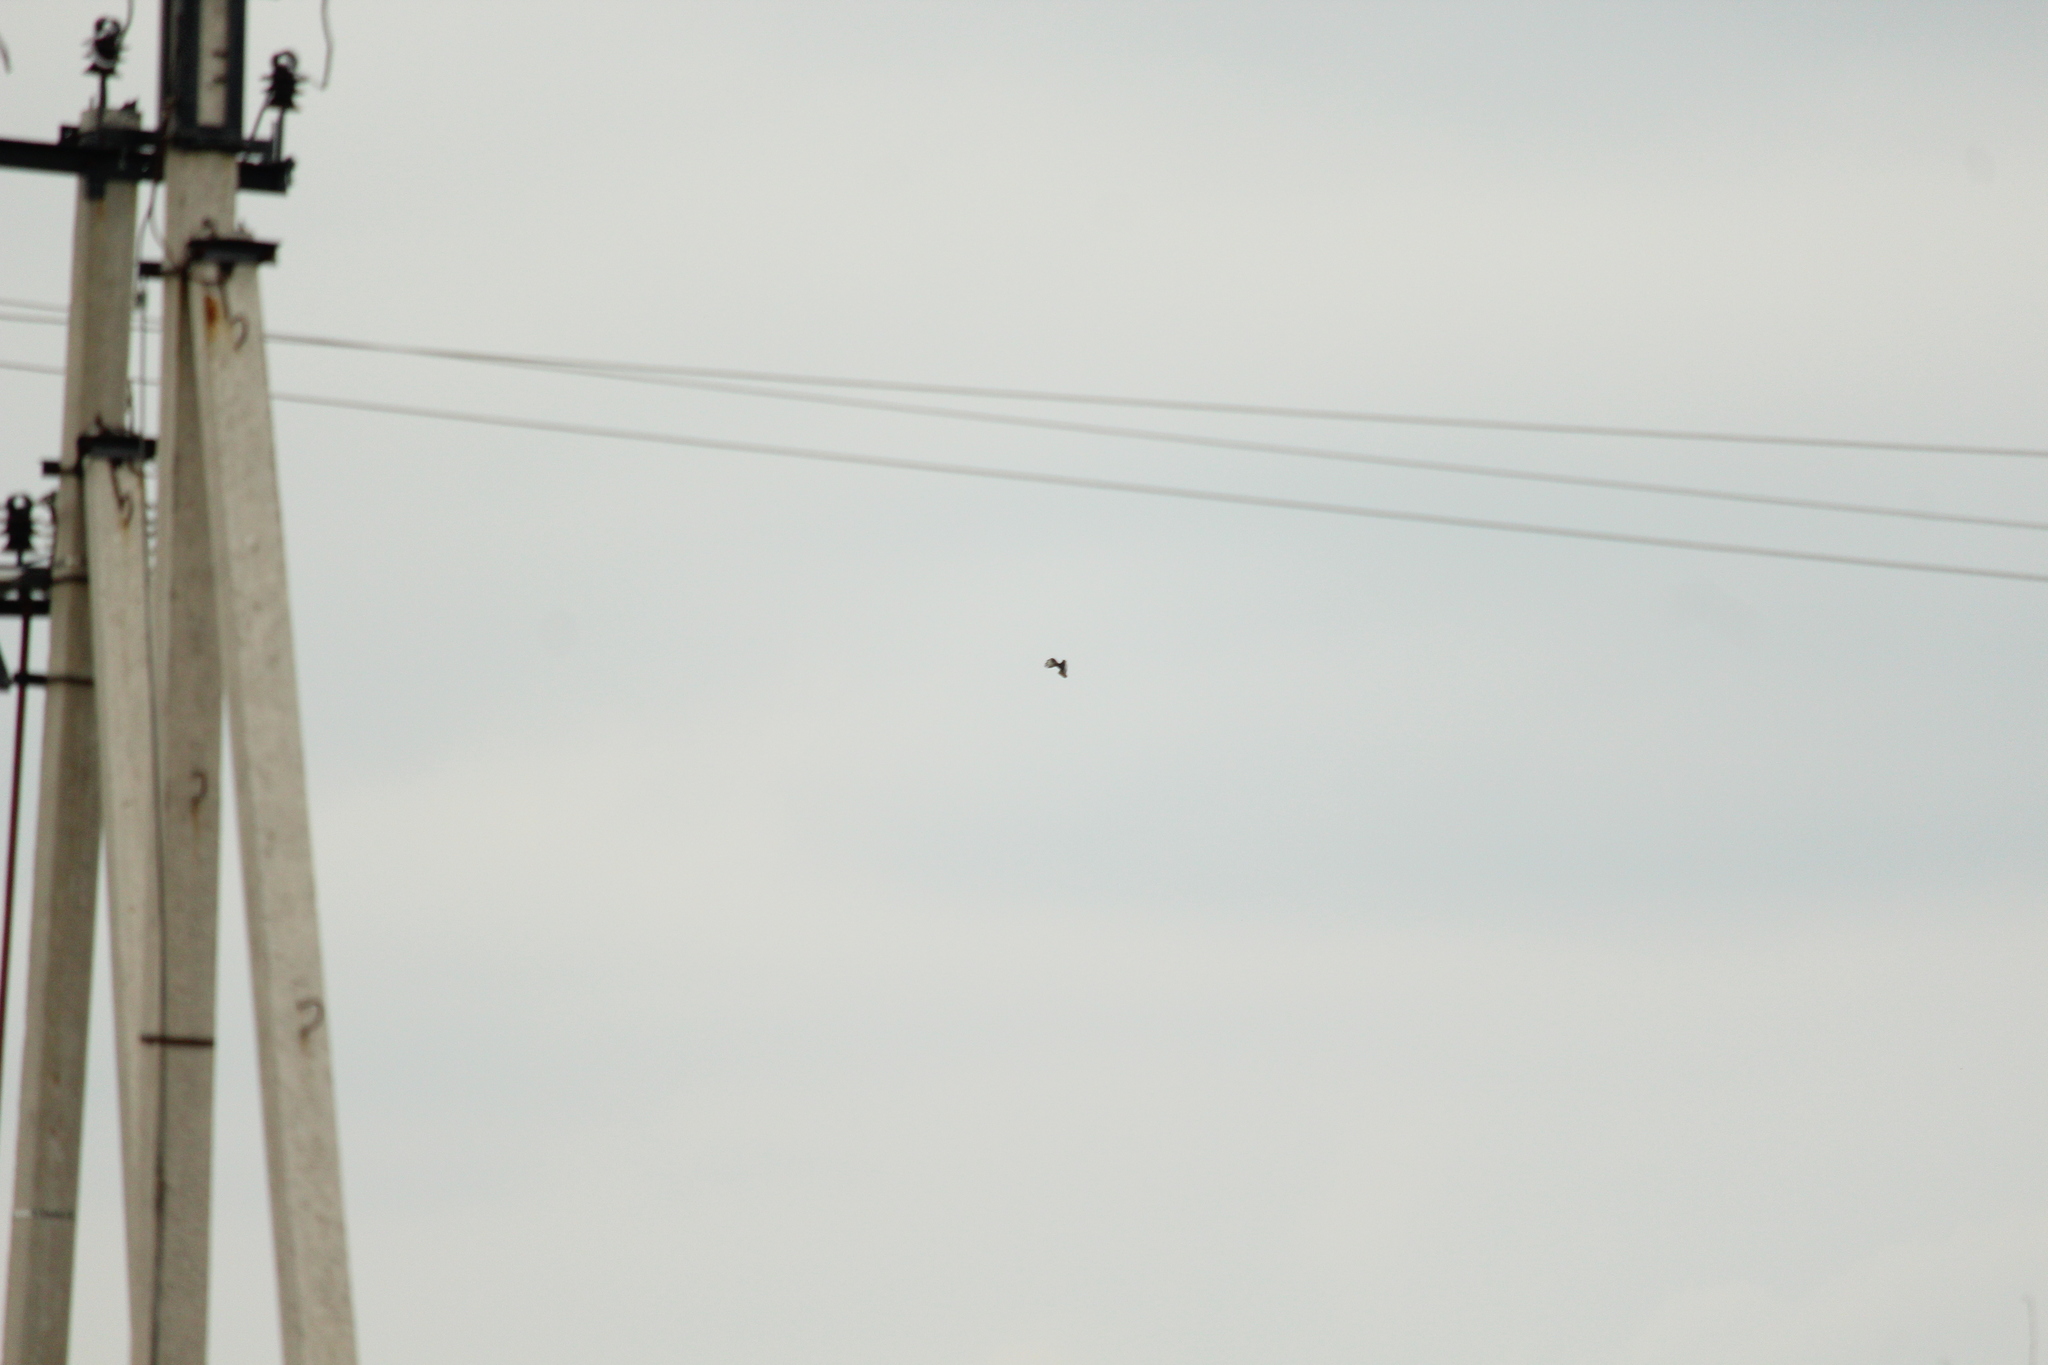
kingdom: Animalia
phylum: Chordata
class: Aves
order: Accipitriformes
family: Accipitridae
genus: Buteo
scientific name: Buteo buteo
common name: Common buzzard
